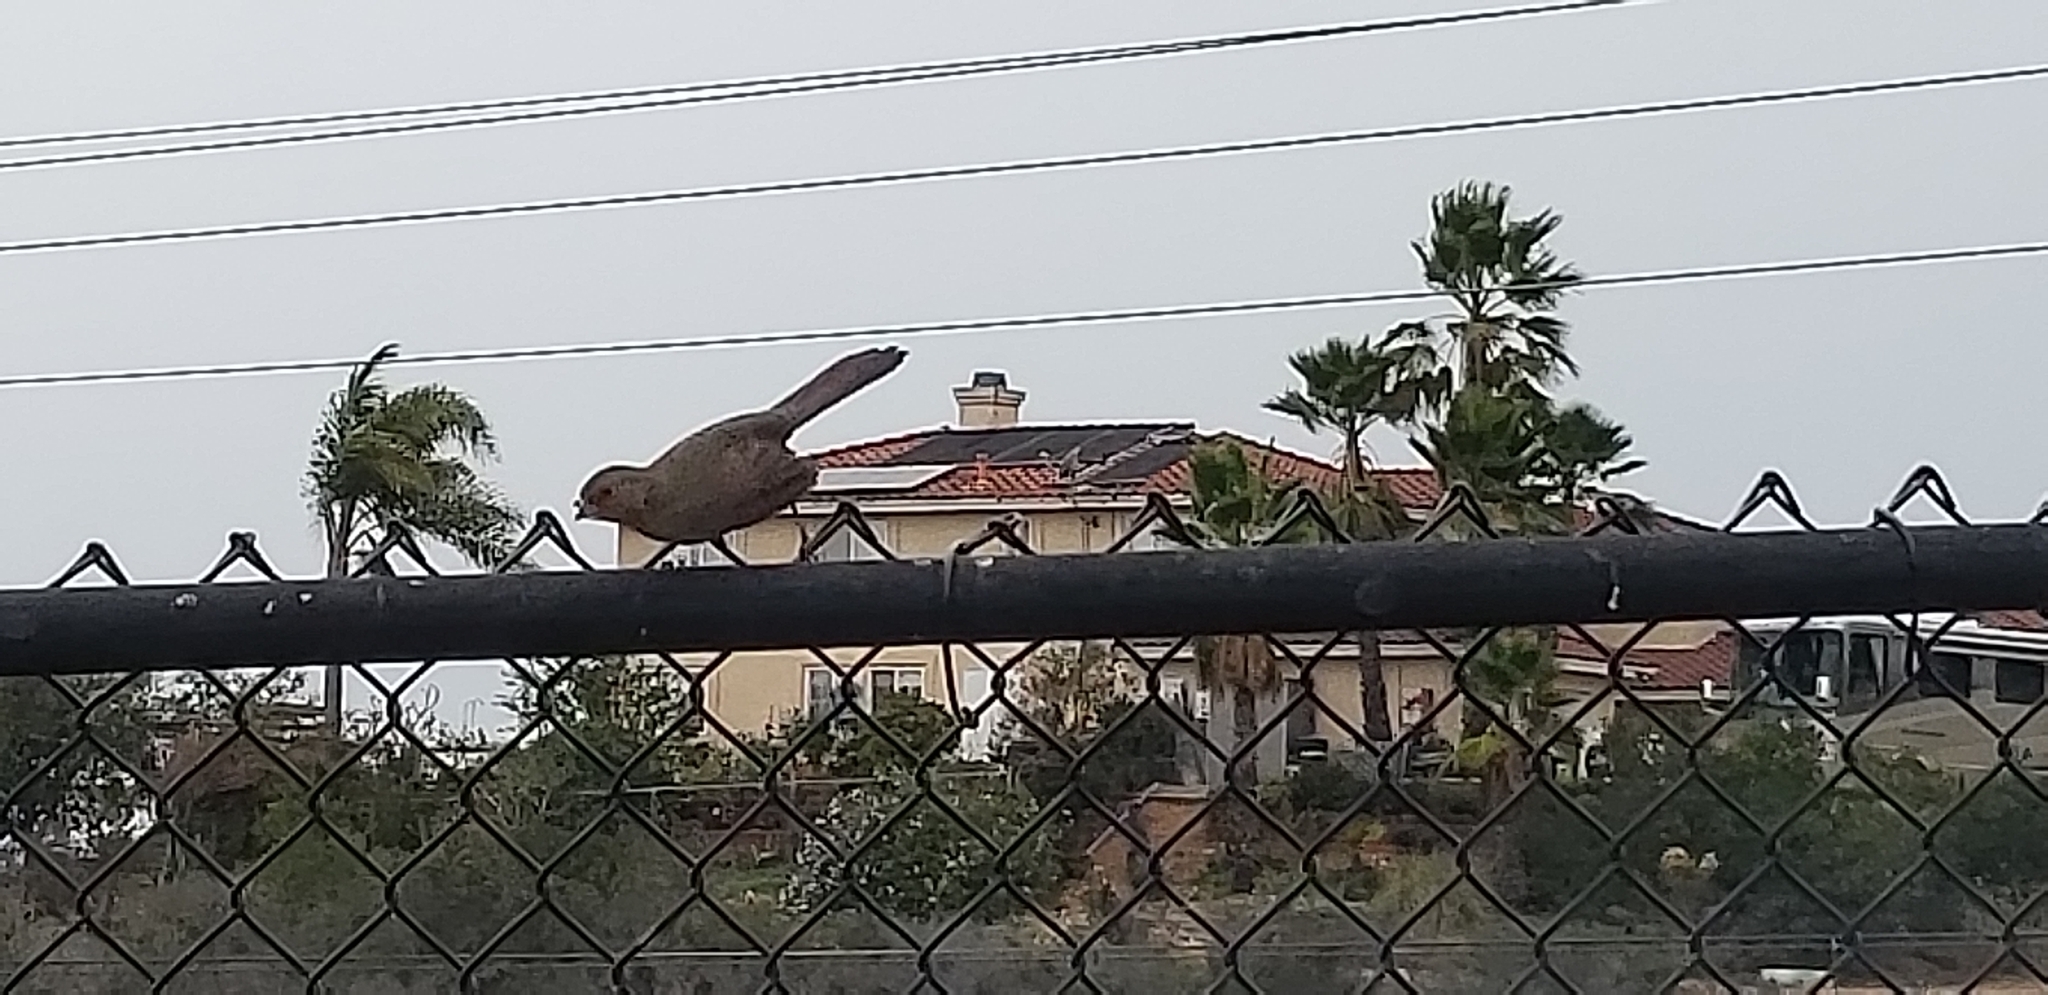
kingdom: Animalia
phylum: Chordata
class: Aves
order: Passeriformes
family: Passerellidae
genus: Melozone
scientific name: Melozone crissalis
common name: California towhee
